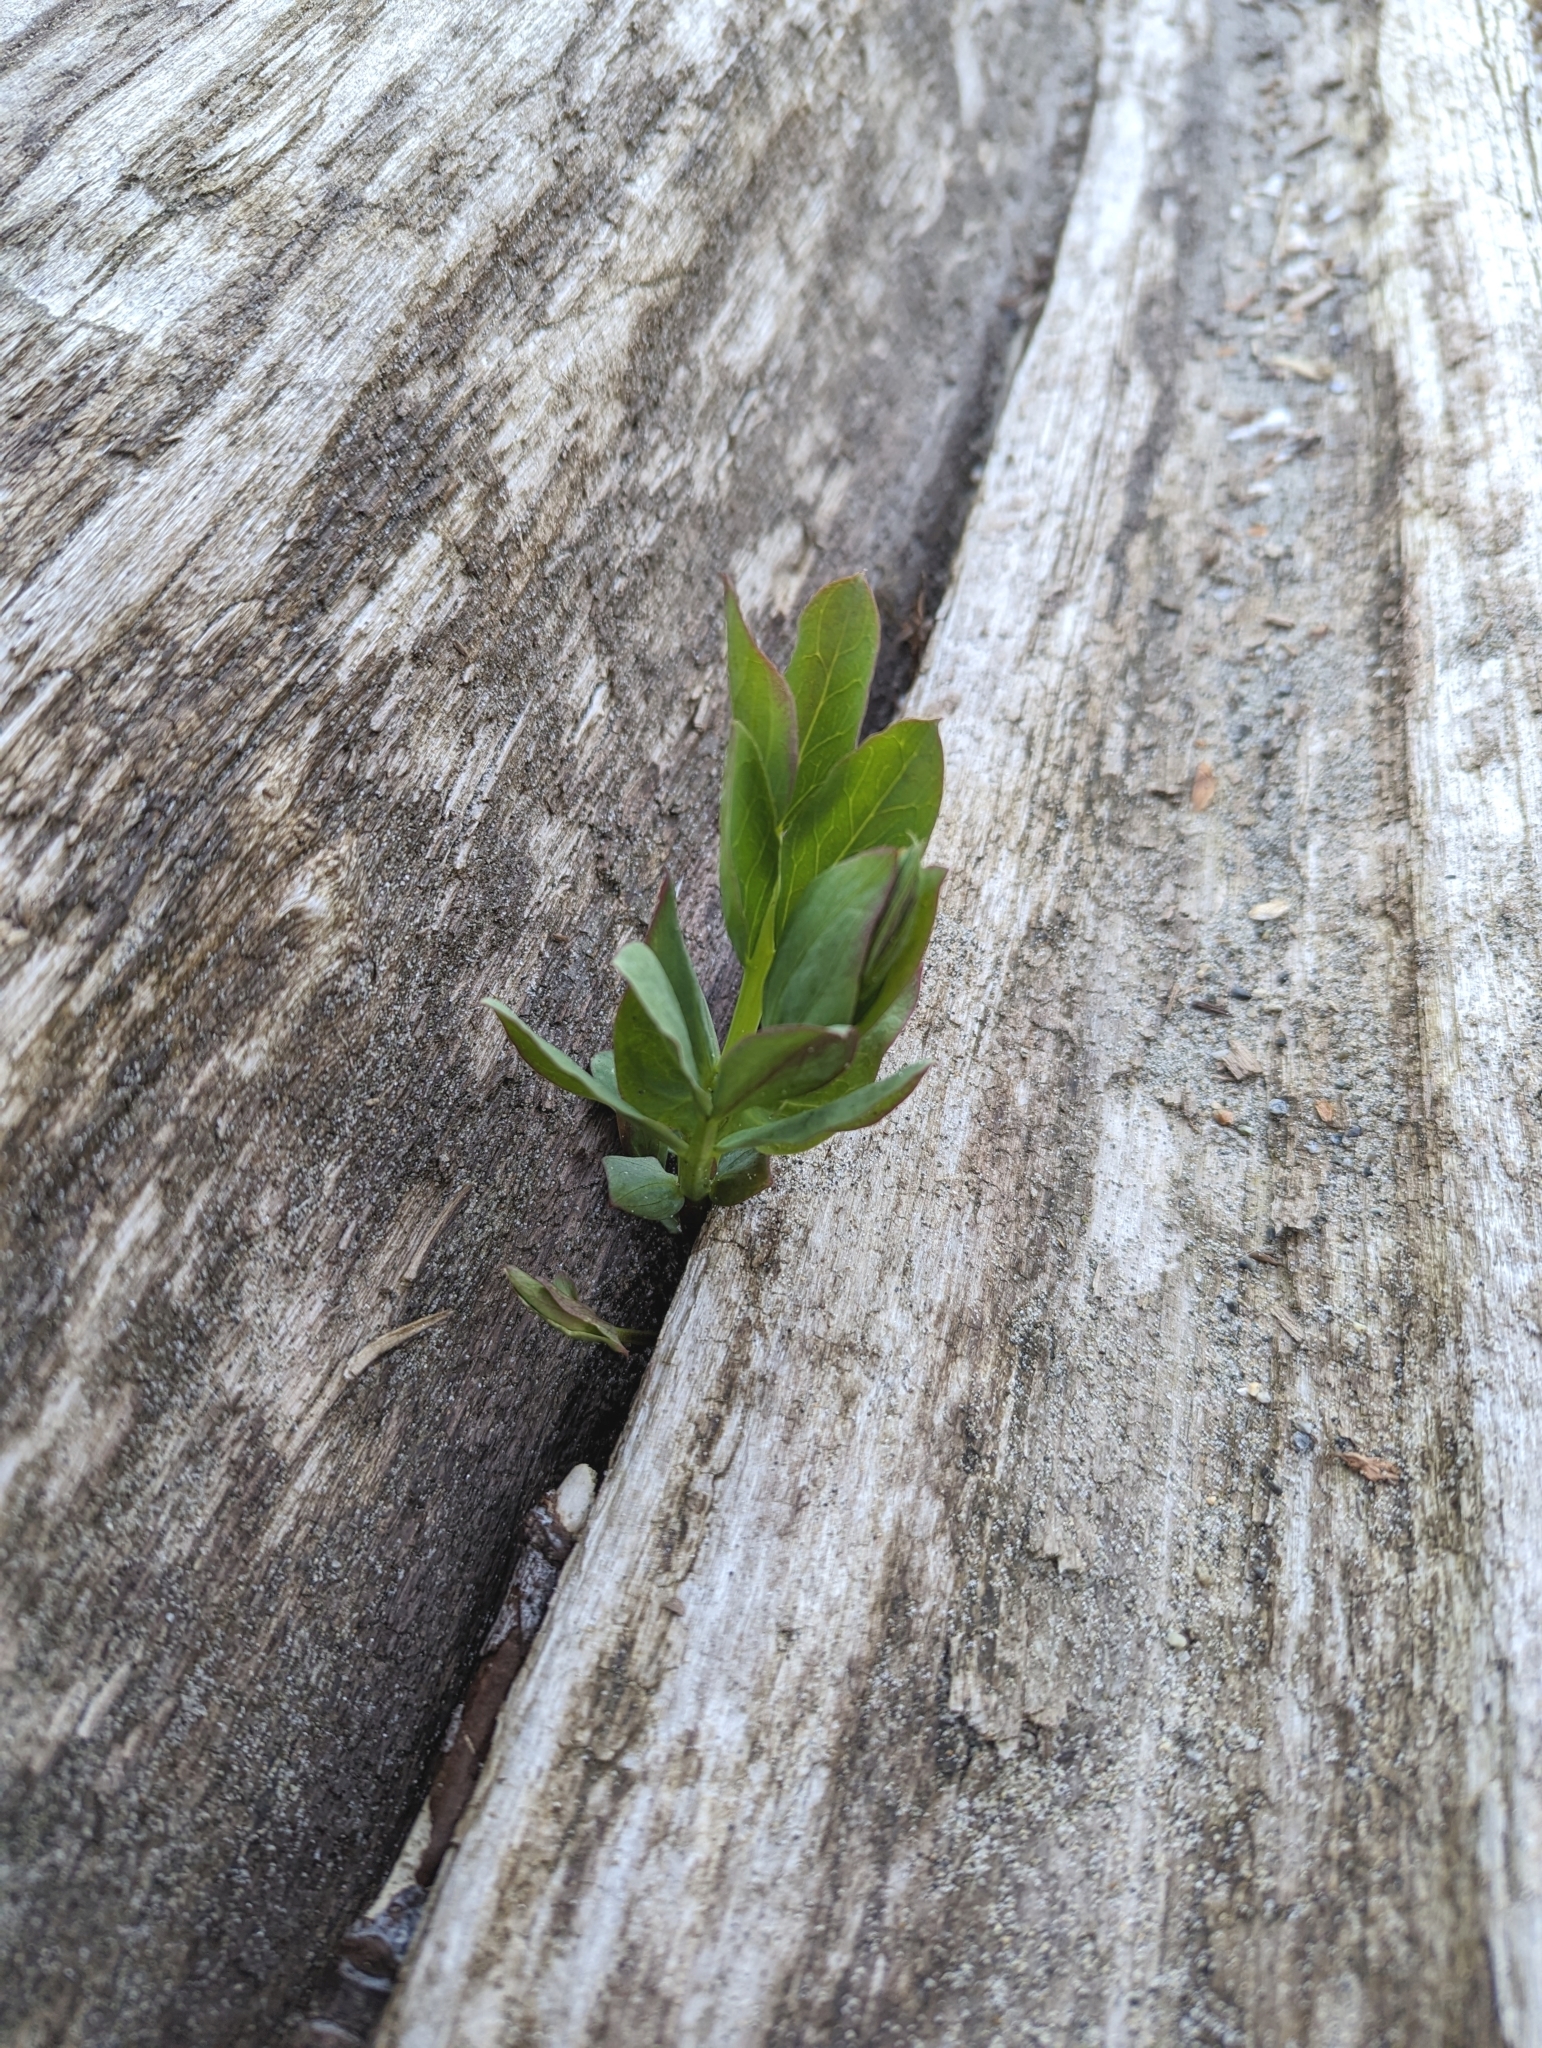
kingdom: Plantae
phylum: Tracheophyta
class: Magnoliopsida
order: Fabales
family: Fabaceae
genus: Lathyrus
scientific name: Lathyrus japonicus
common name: Sea pea
